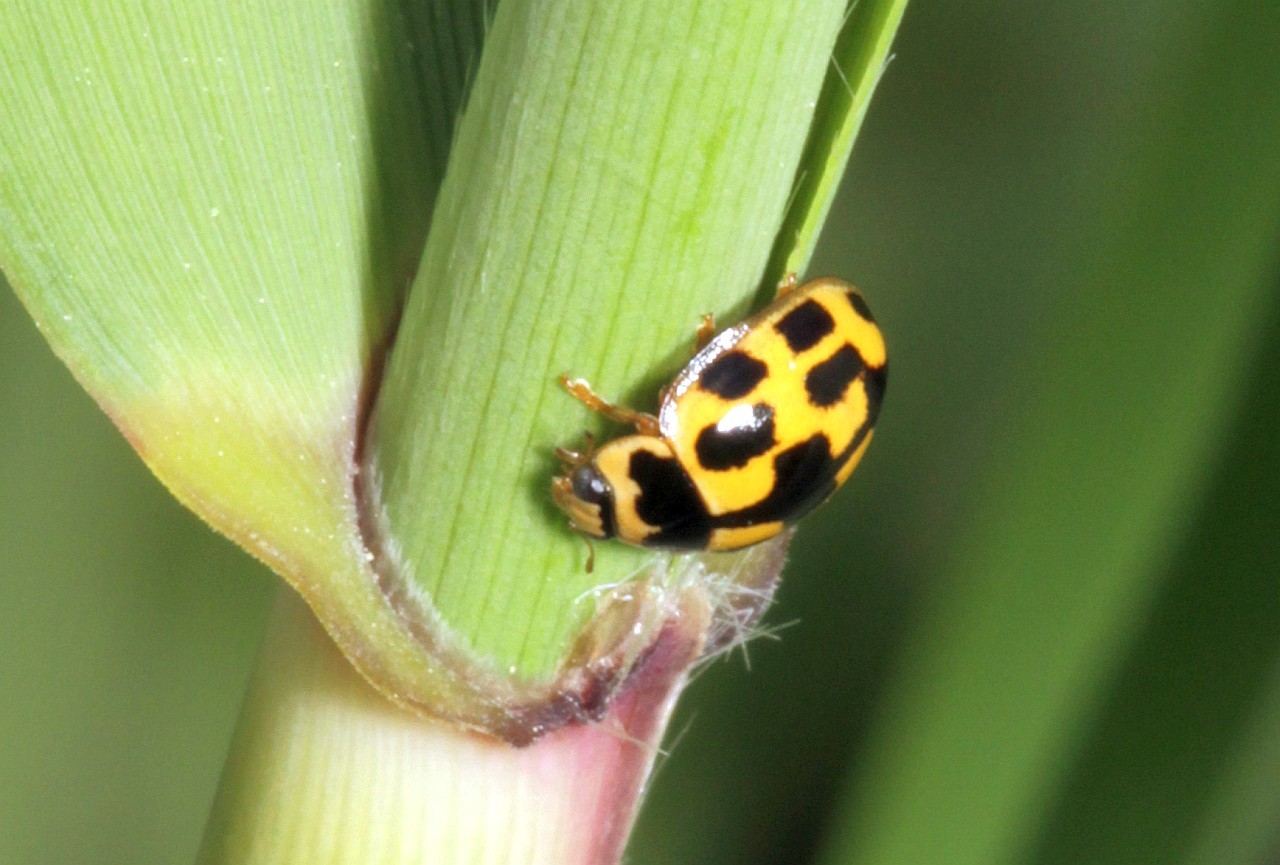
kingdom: Animalia
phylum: Arthropoda
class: Insecta
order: Coleoptera
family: Coccinellidae
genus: Propylaea
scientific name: Propylaea quatuordecimpunctata
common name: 14-spotted ladybird beetle
